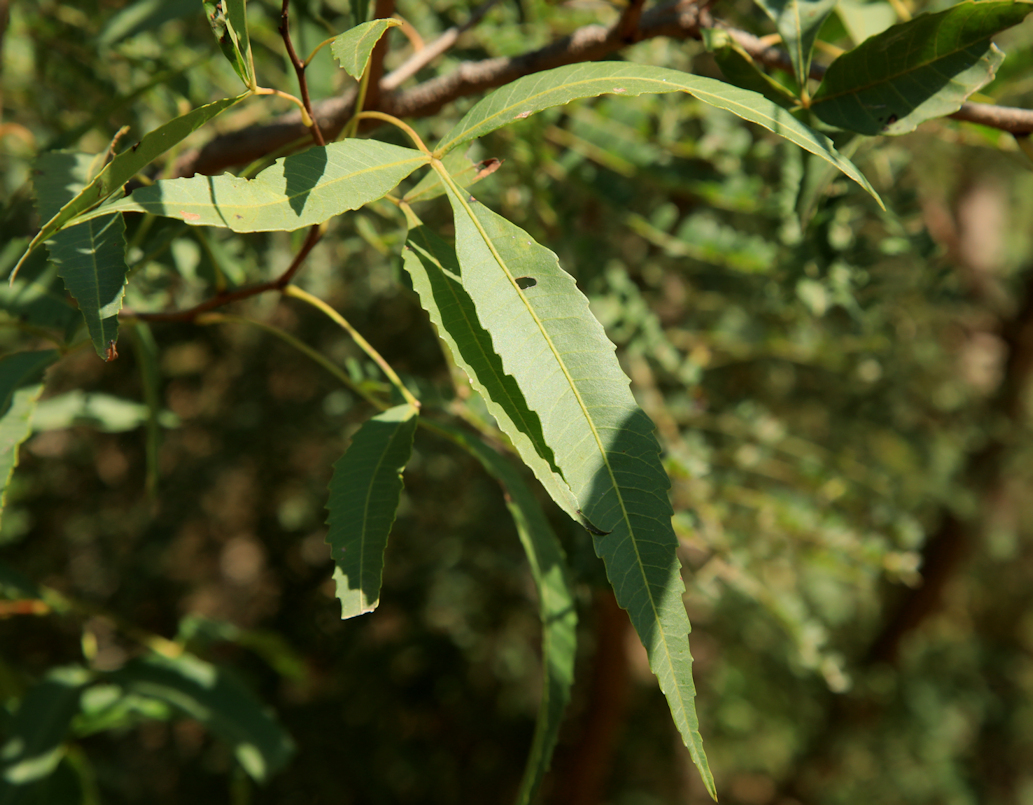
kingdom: Plantae
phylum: Tracheophyta
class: Magnoliopsida
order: Sapindales
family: Anacardiaceae
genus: Searsia
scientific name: Searsia leptodictya
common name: Mountain karee
